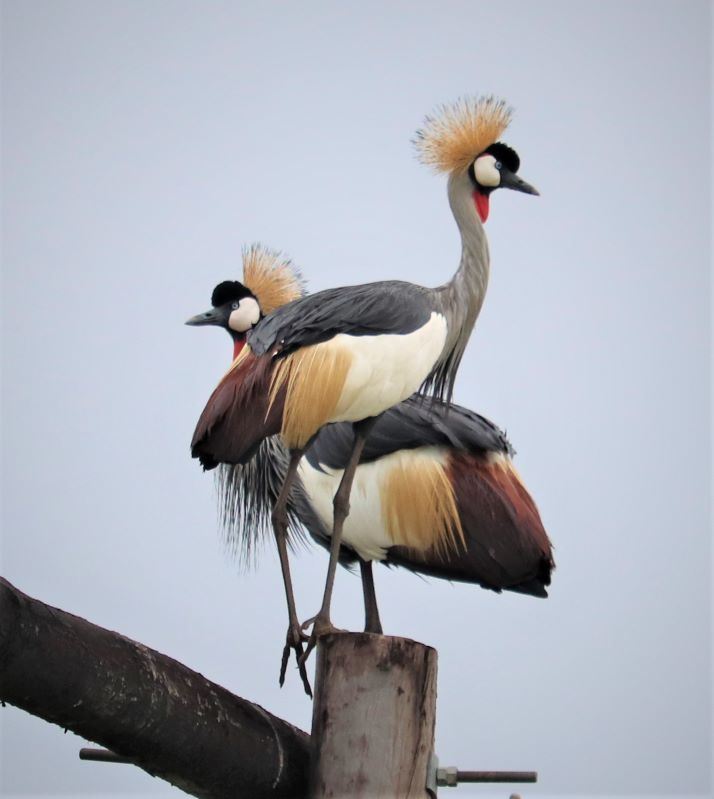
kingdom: Animalia
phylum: Chordata
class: Aves
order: Gruiformes
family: Gruidae
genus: Balearica
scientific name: Balearica regulorum
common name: Grey crowned crane
